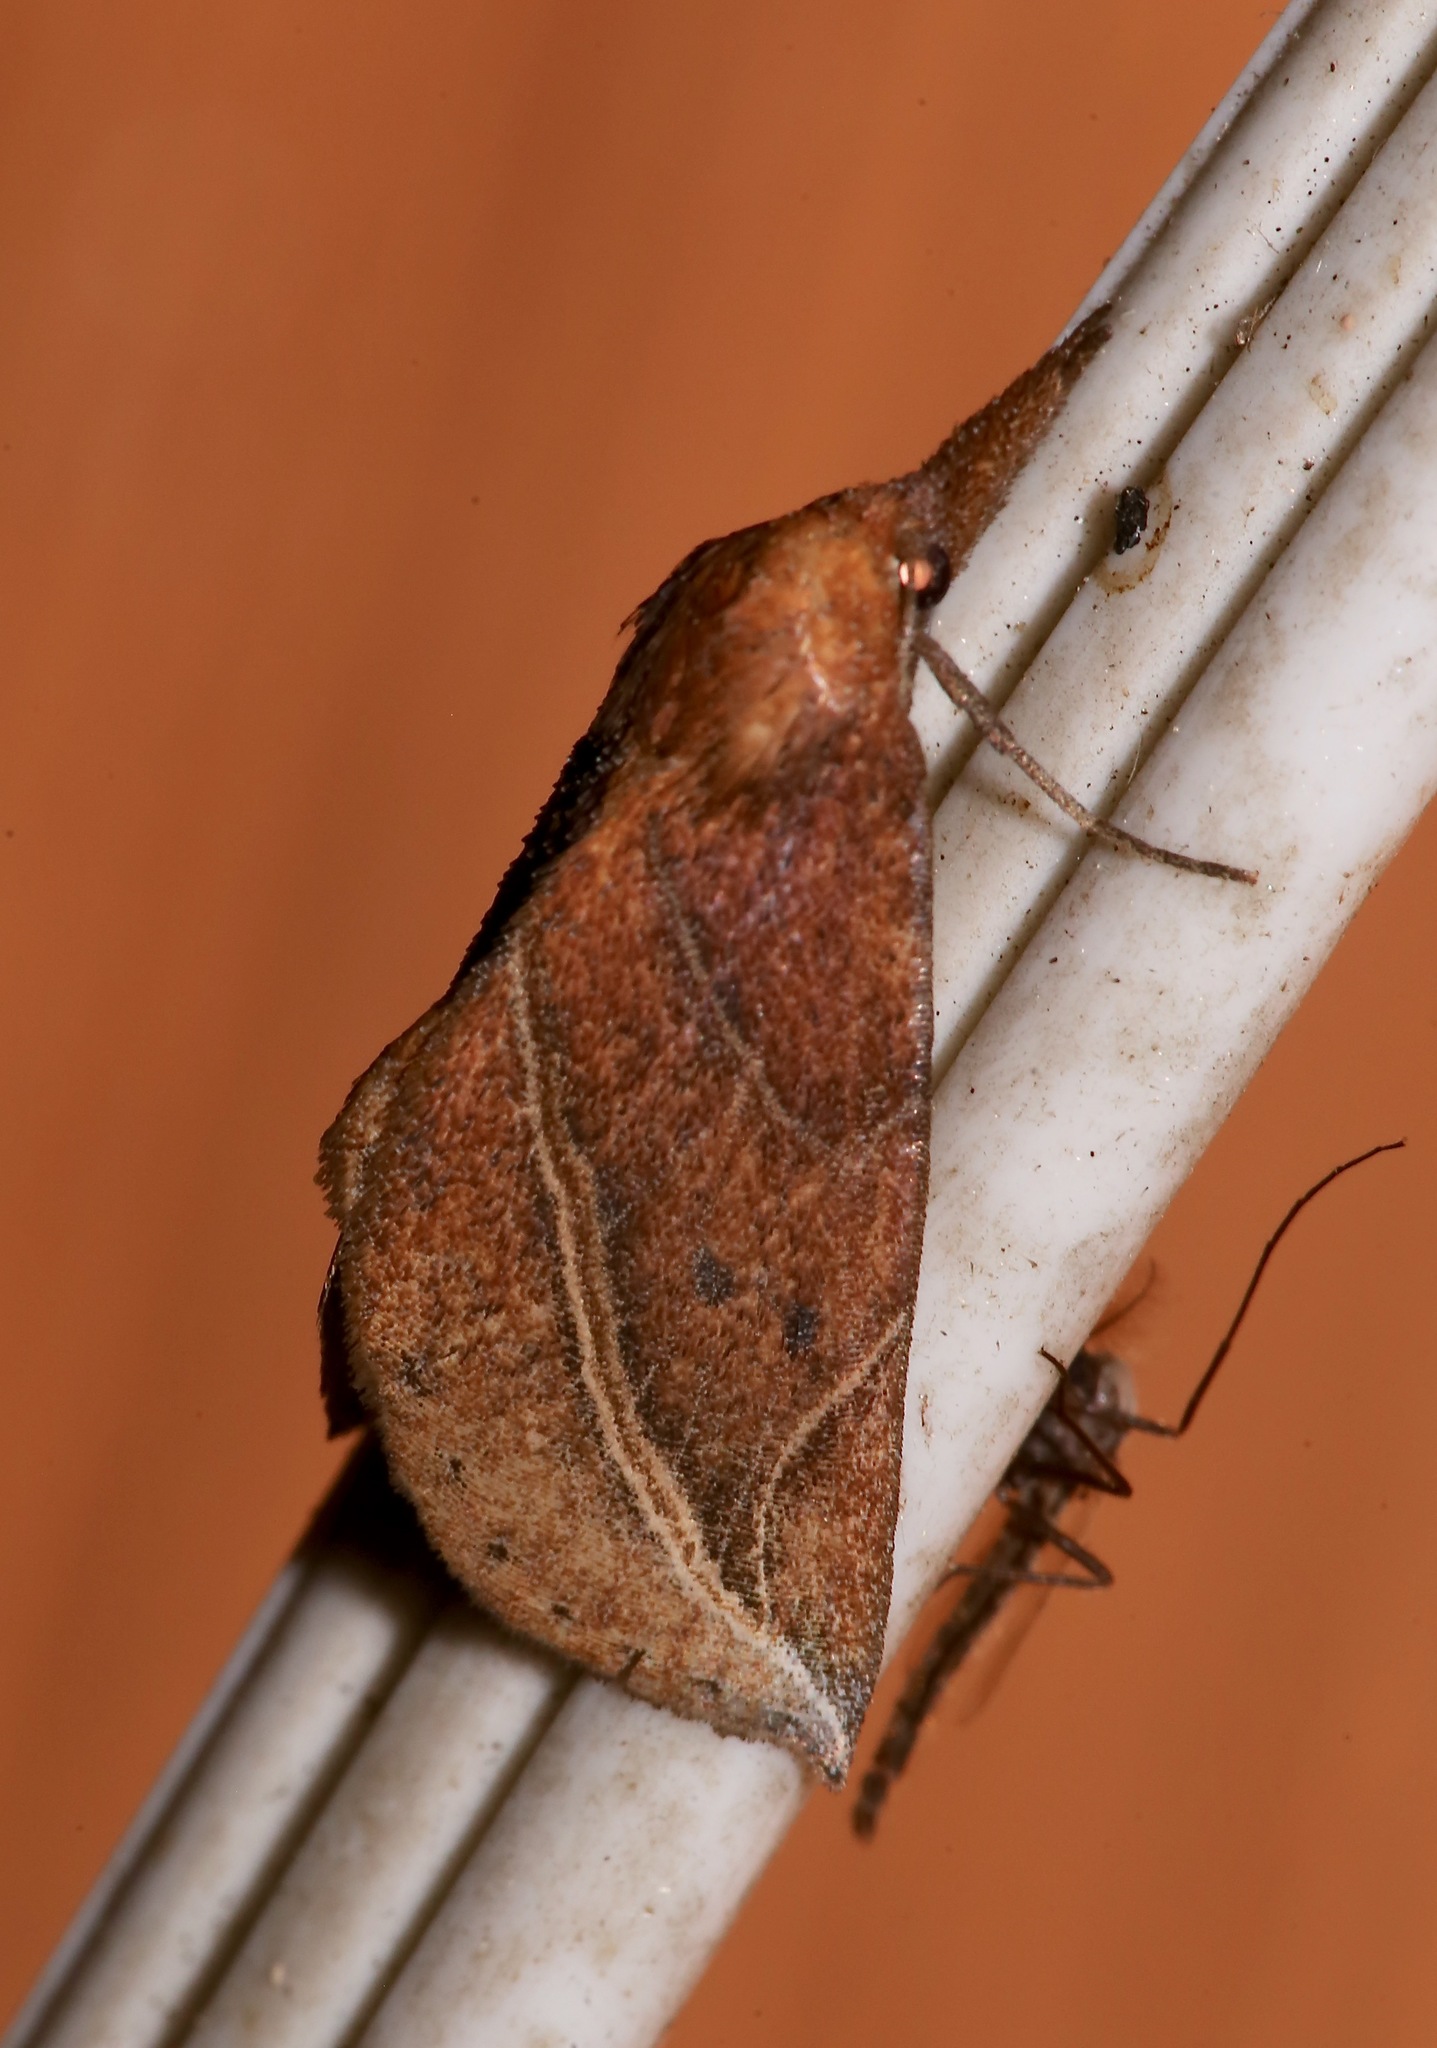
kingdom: Animalia
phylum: Arthropoda
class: Insecta
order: Lepidoptera
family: Erebidae
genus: Phyprosopus
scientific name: Phyprosopus callitrichoides
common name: Curved-lined owlet
